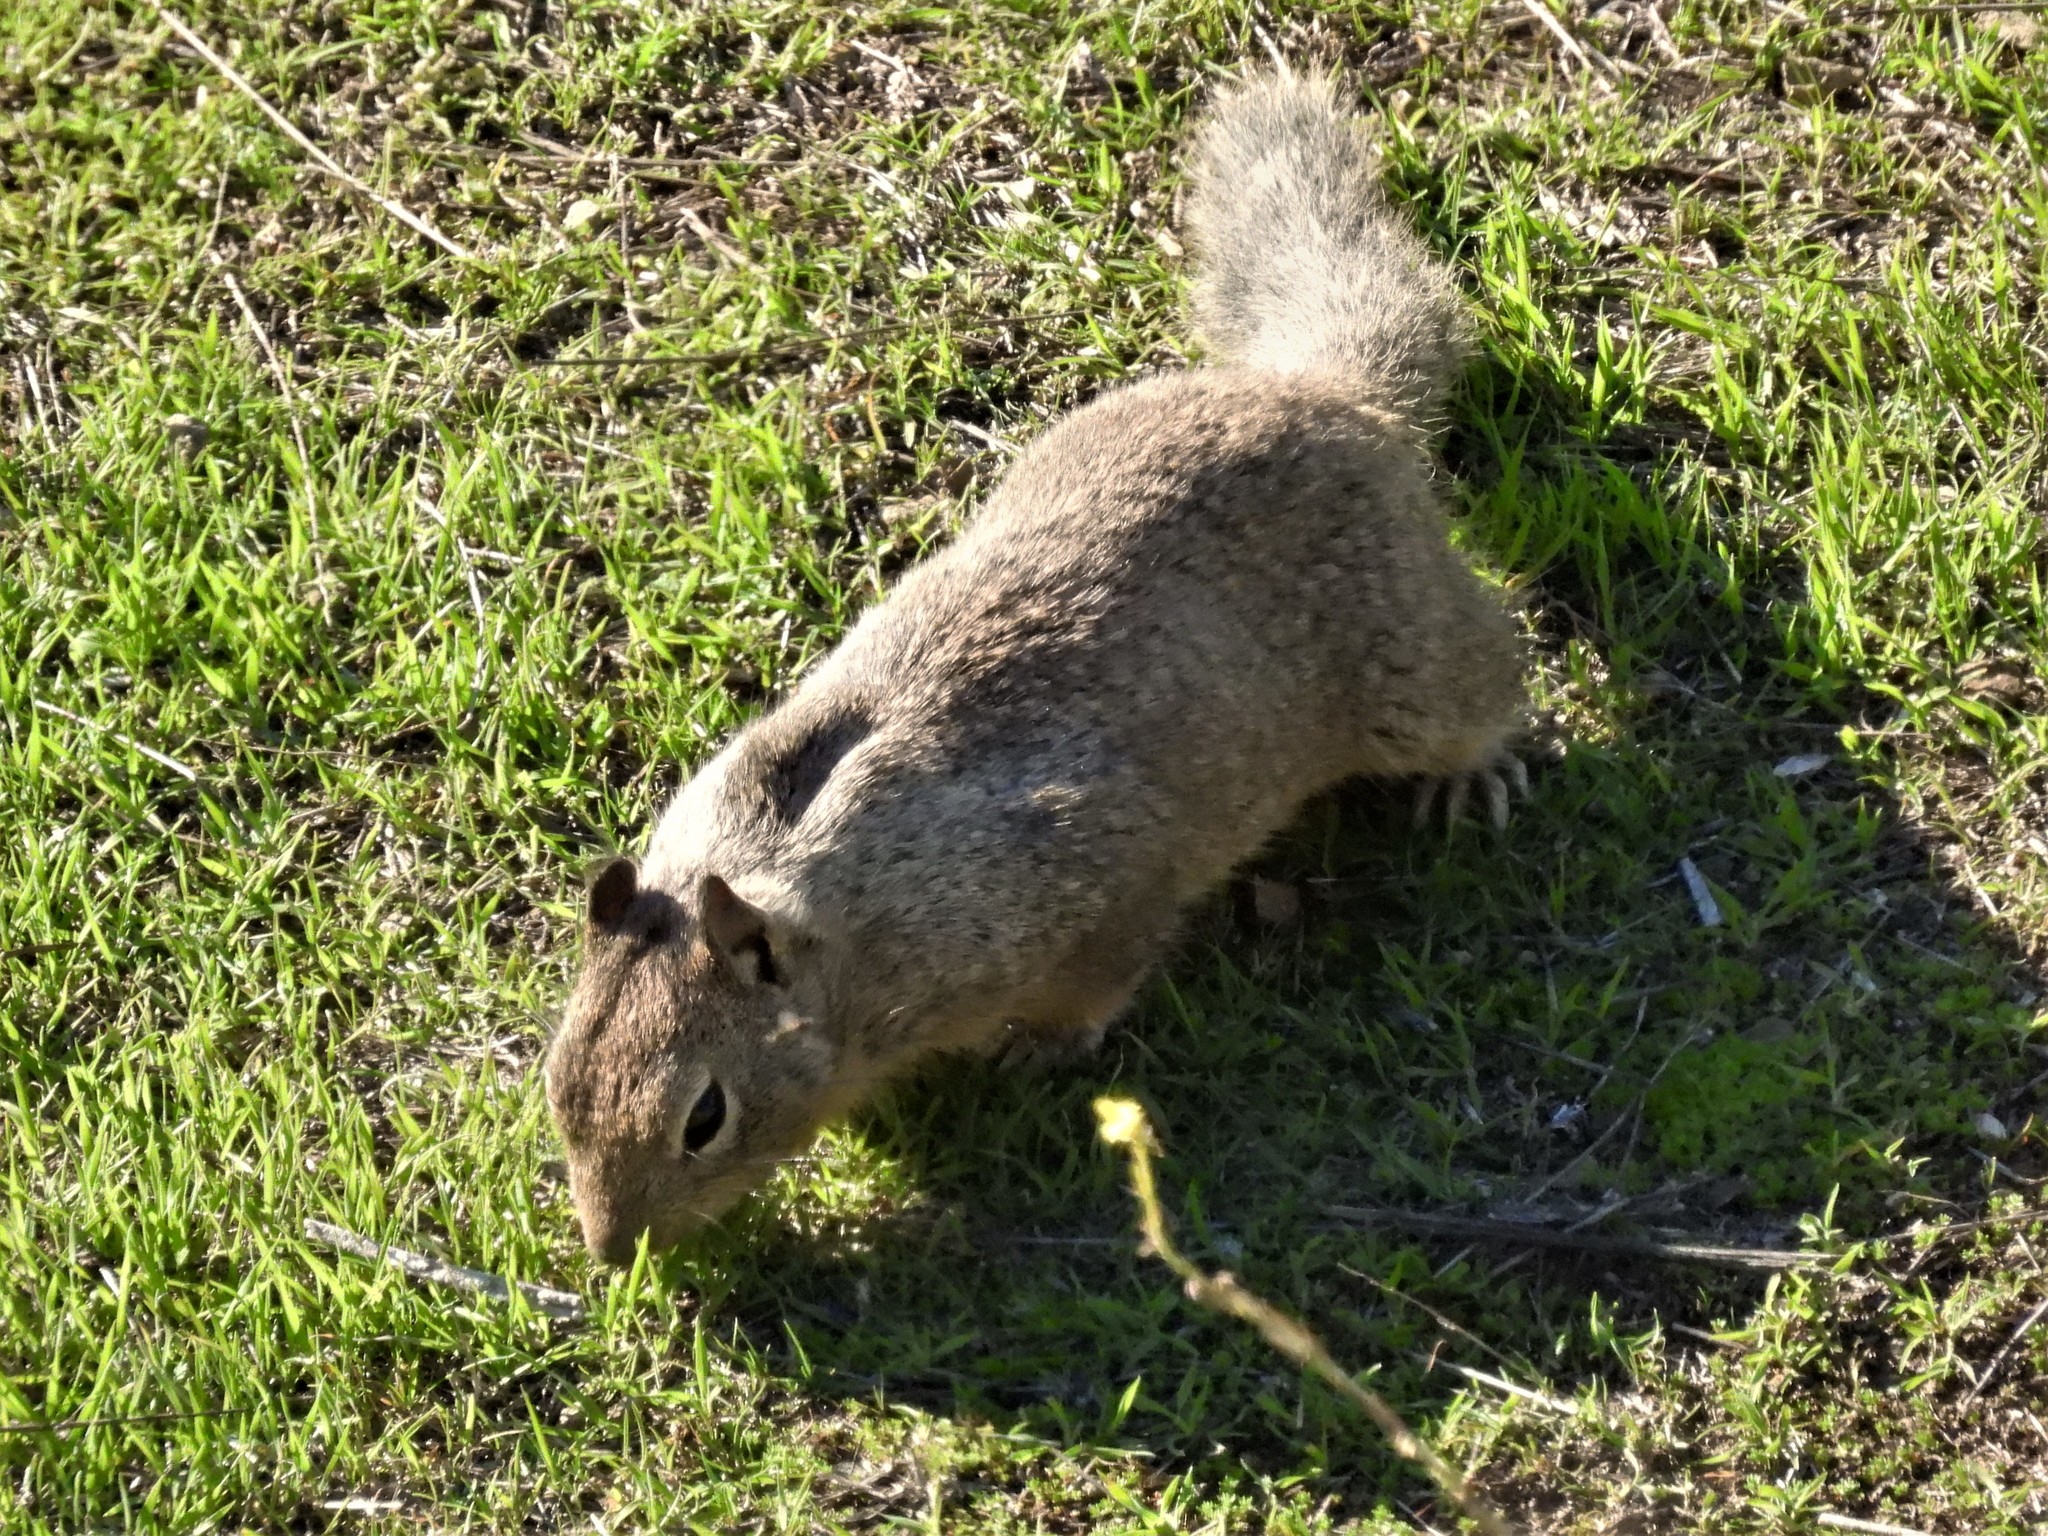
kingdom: Animalia
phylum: Chordata
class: Mammalia
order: Rodentia
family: Sciuridae
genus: Otospermophilus
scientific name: Otospermophilus beecheyi
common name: California ground squirrel
